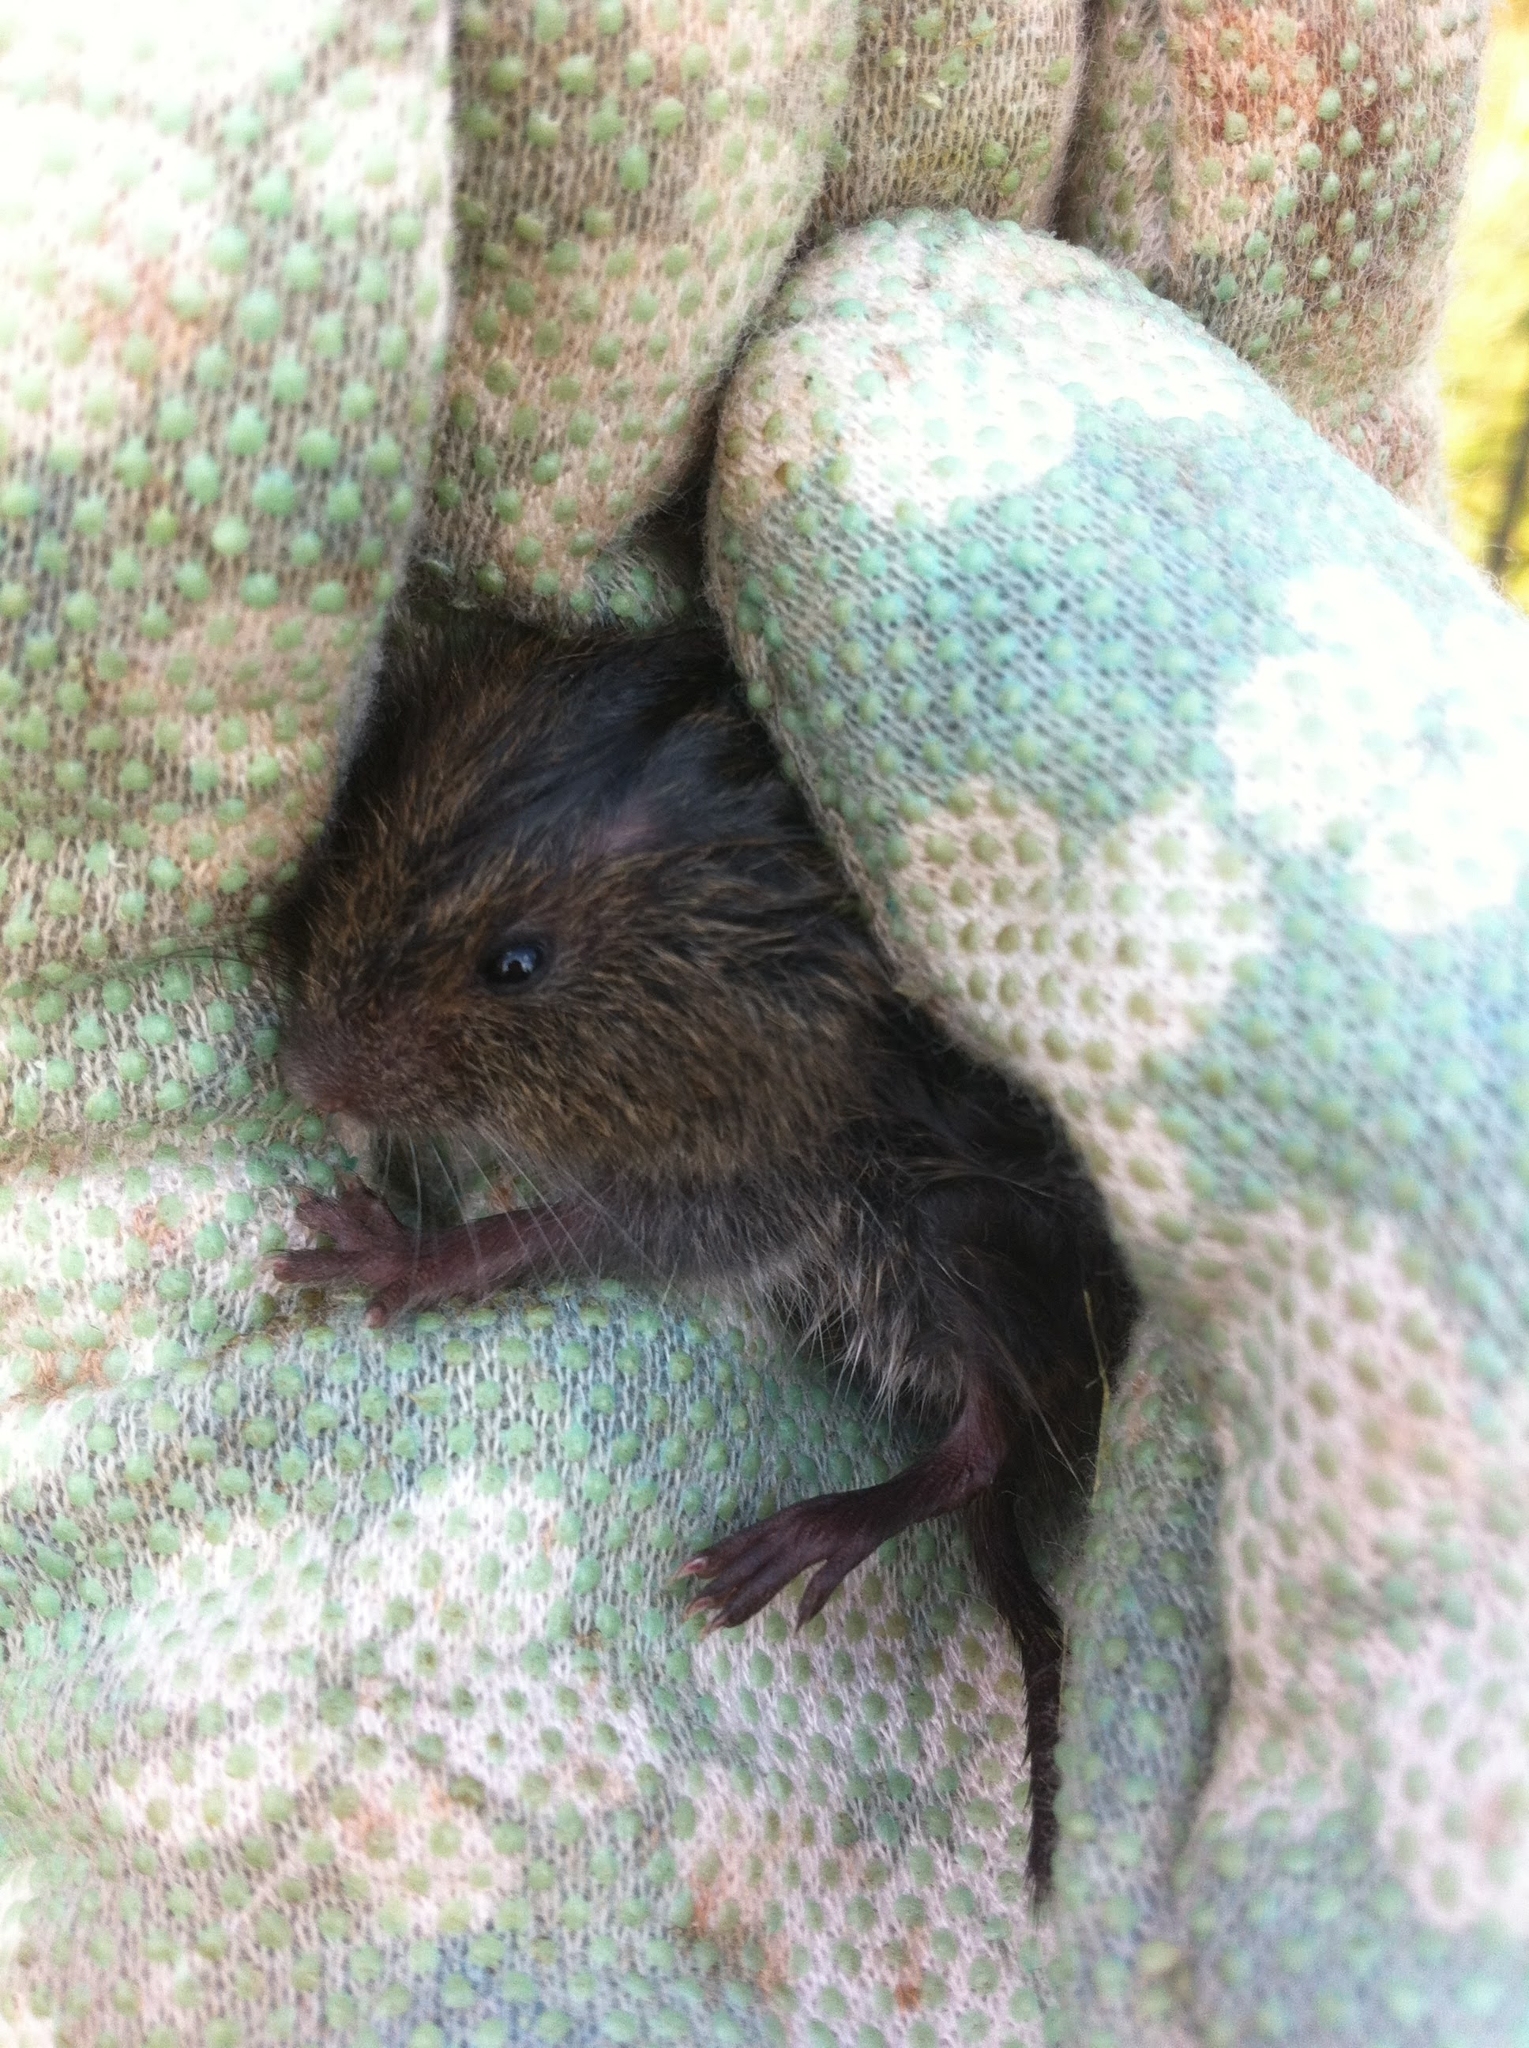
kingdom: Animalia
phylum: Chordata
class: Mammalia
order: Rodentia
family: Cricetidae
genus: Microtus
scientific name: Microtus pennsylvanicus
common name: Meadow vole
